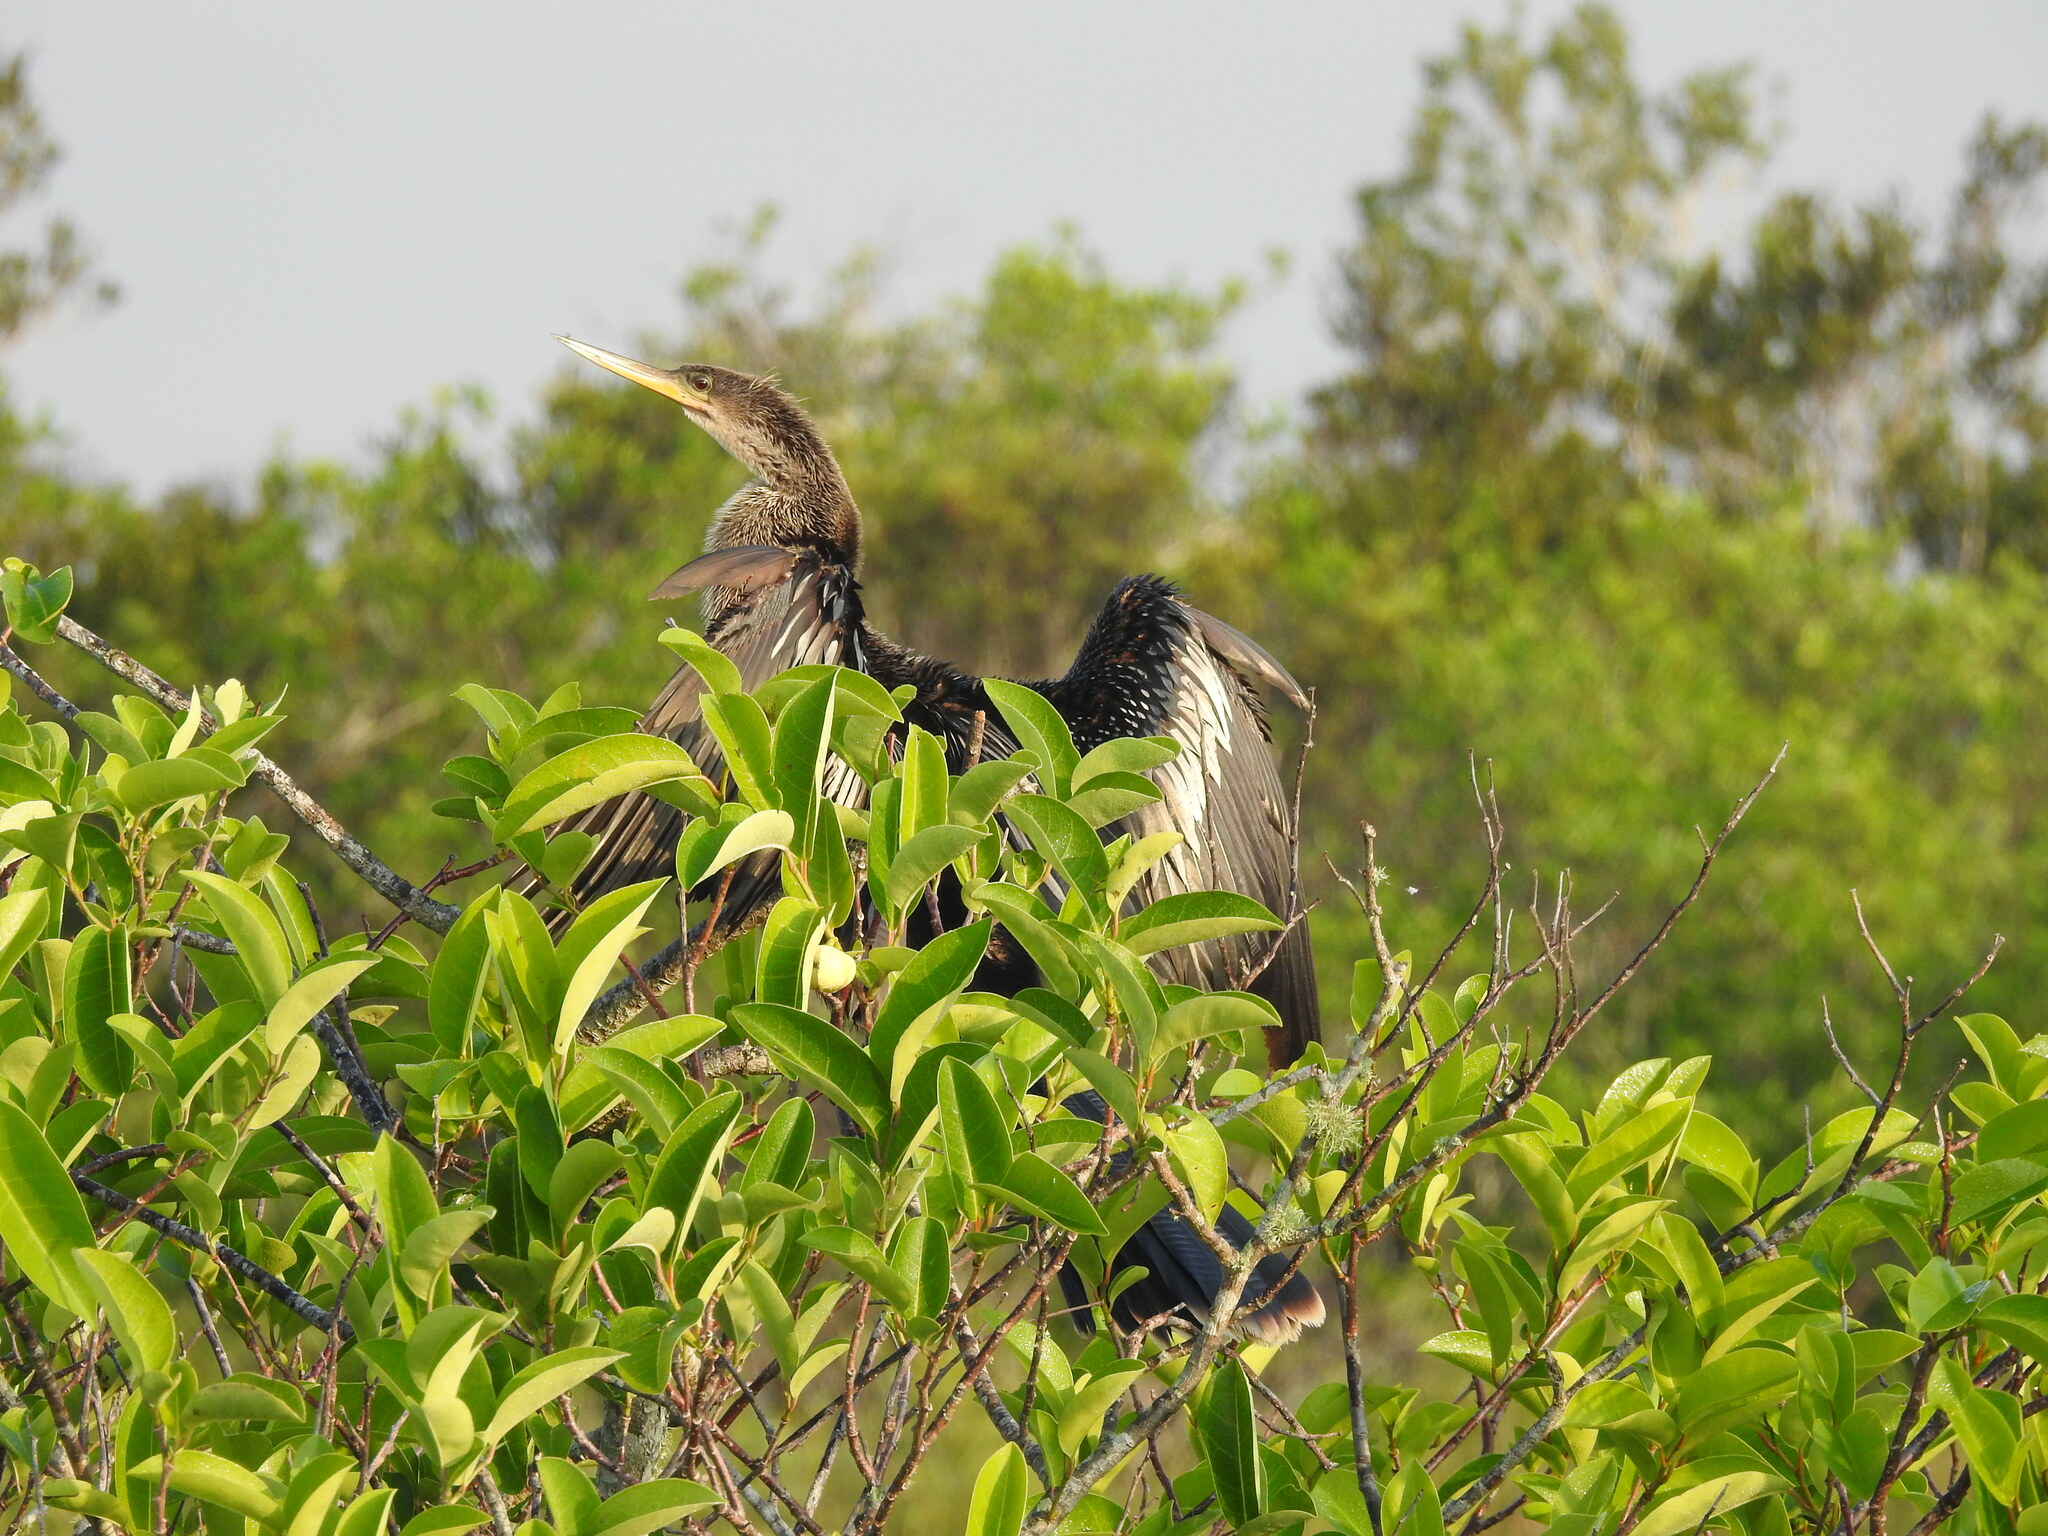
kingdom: Animalia
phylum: Chordata
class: Aves
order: Suliformes
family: Anhingidae
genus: Anhinga
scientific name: Anhinga anhinga
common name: Anhinga
